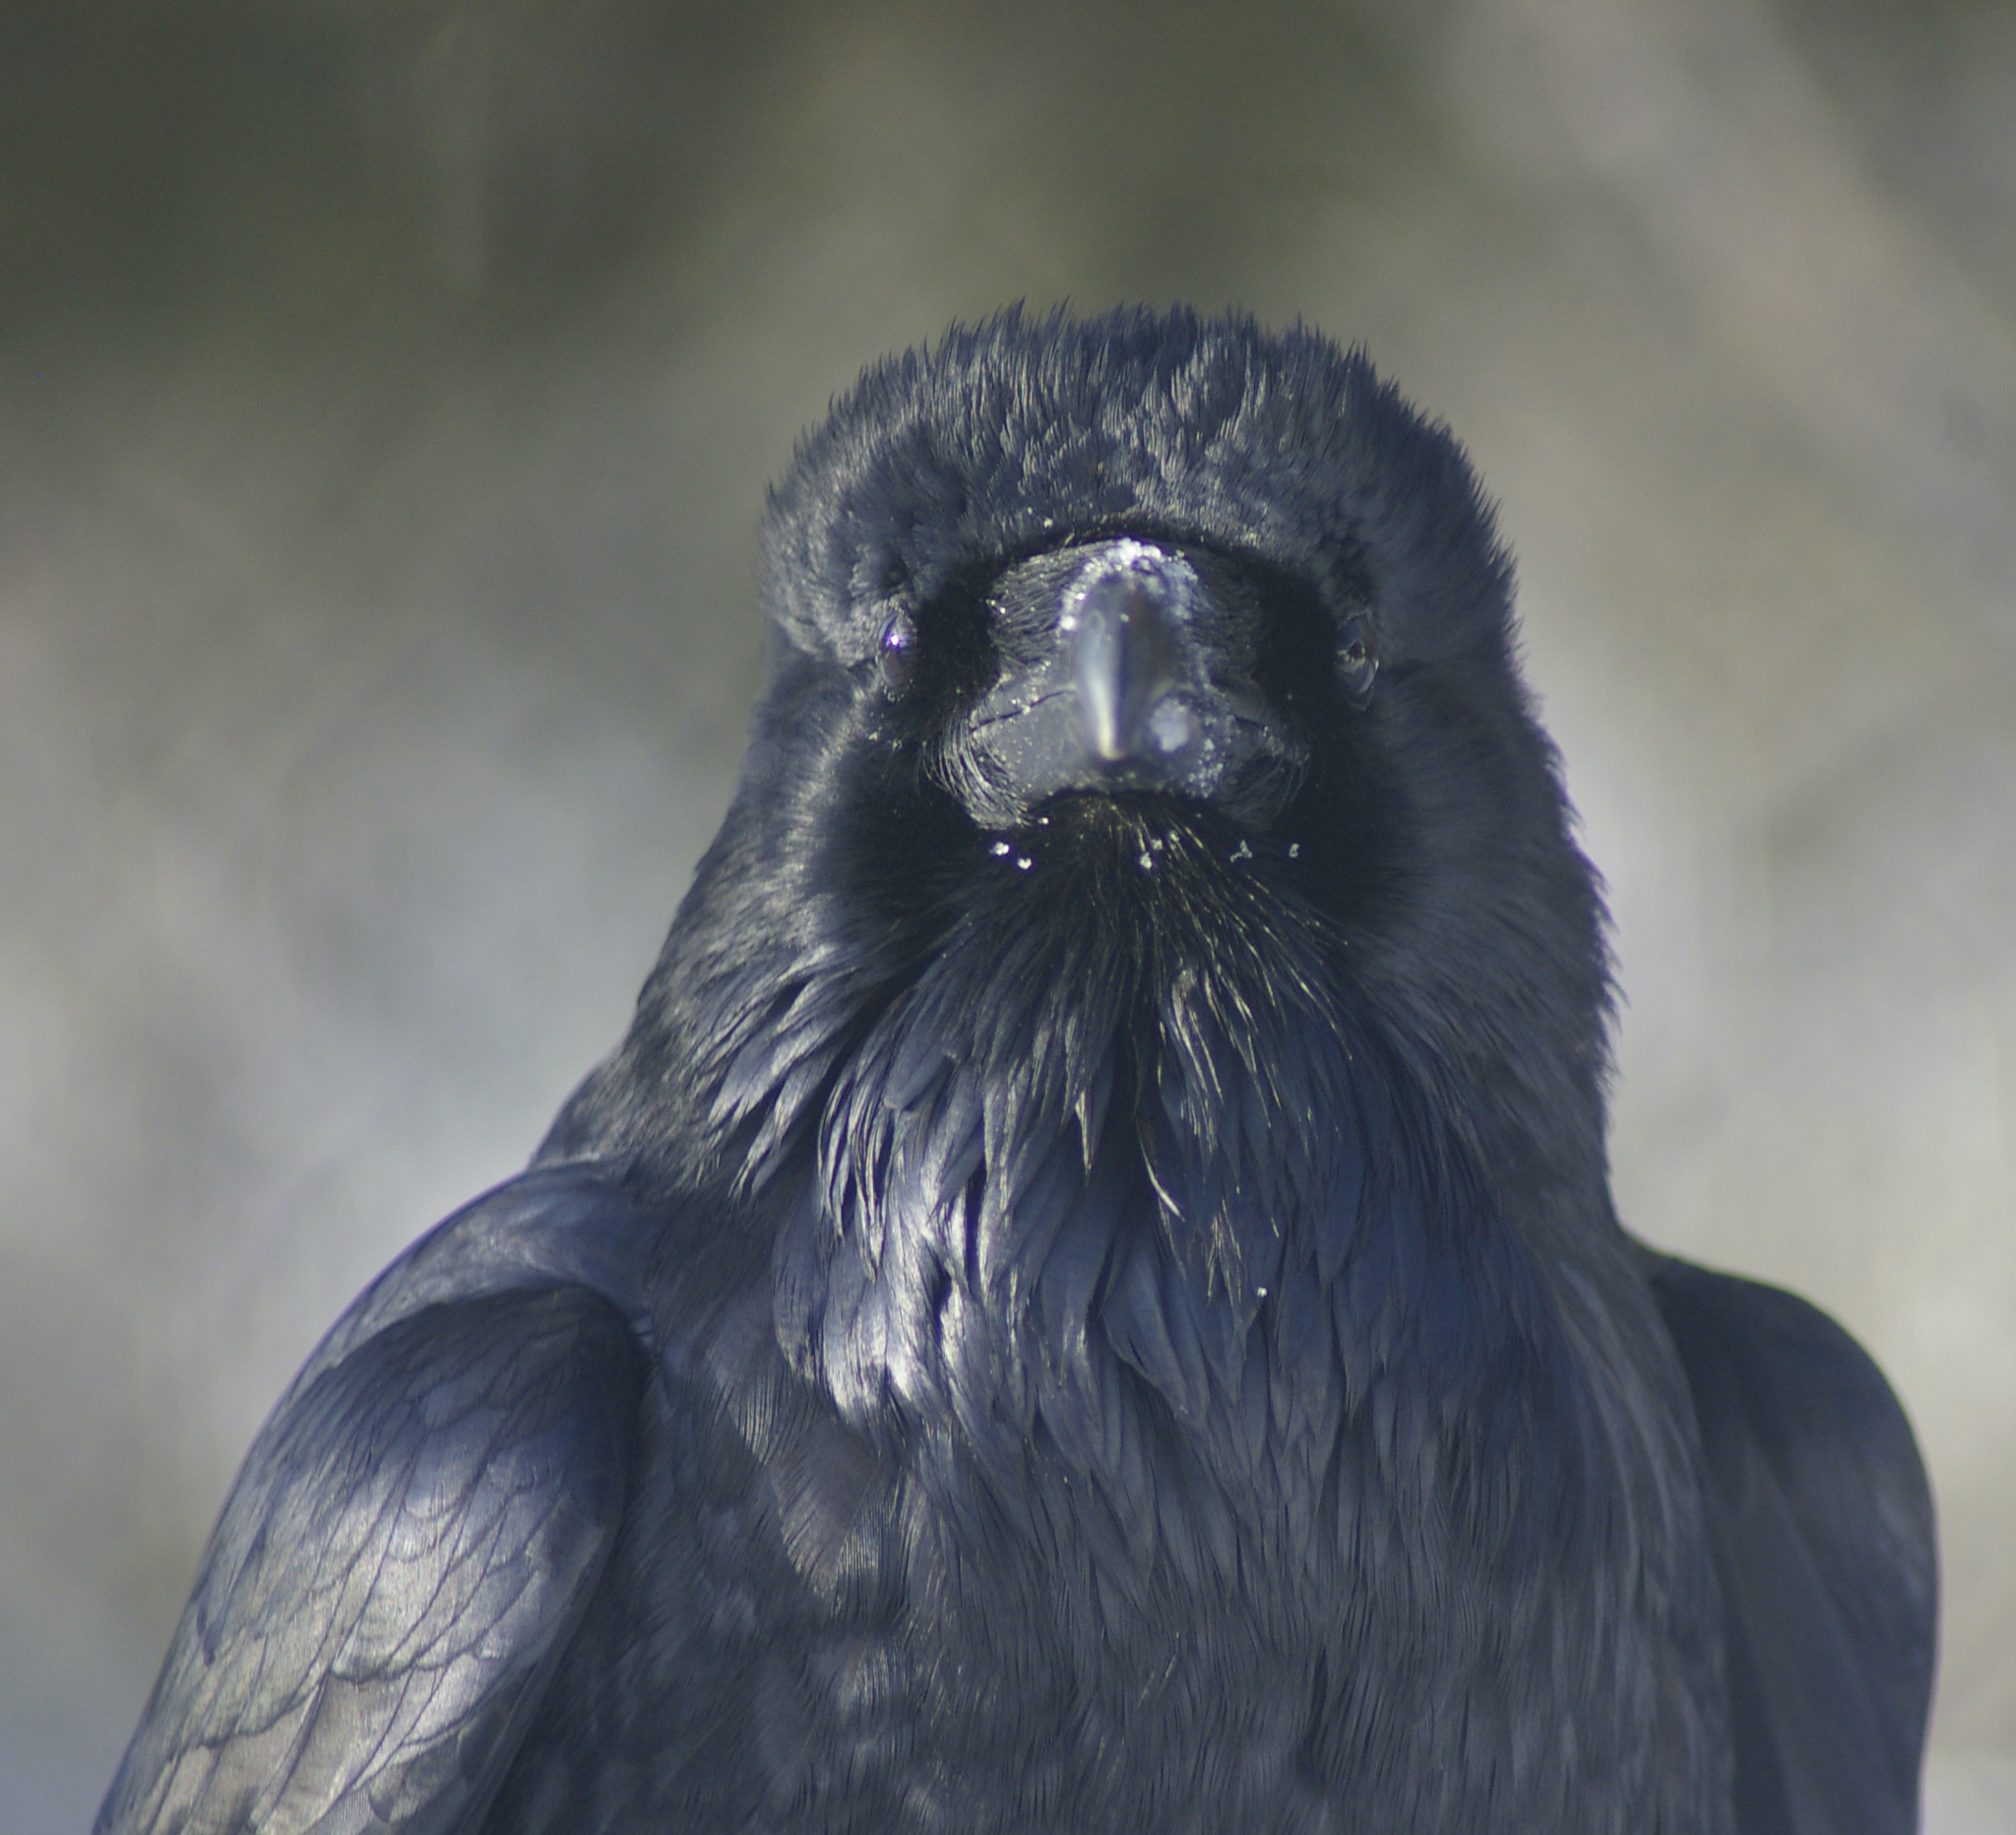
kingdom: Animalia
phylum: Chordata
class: Aves
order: Passeriformes
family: Corvidae
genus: Corvus
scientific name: Corvus corax
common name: Common raven
